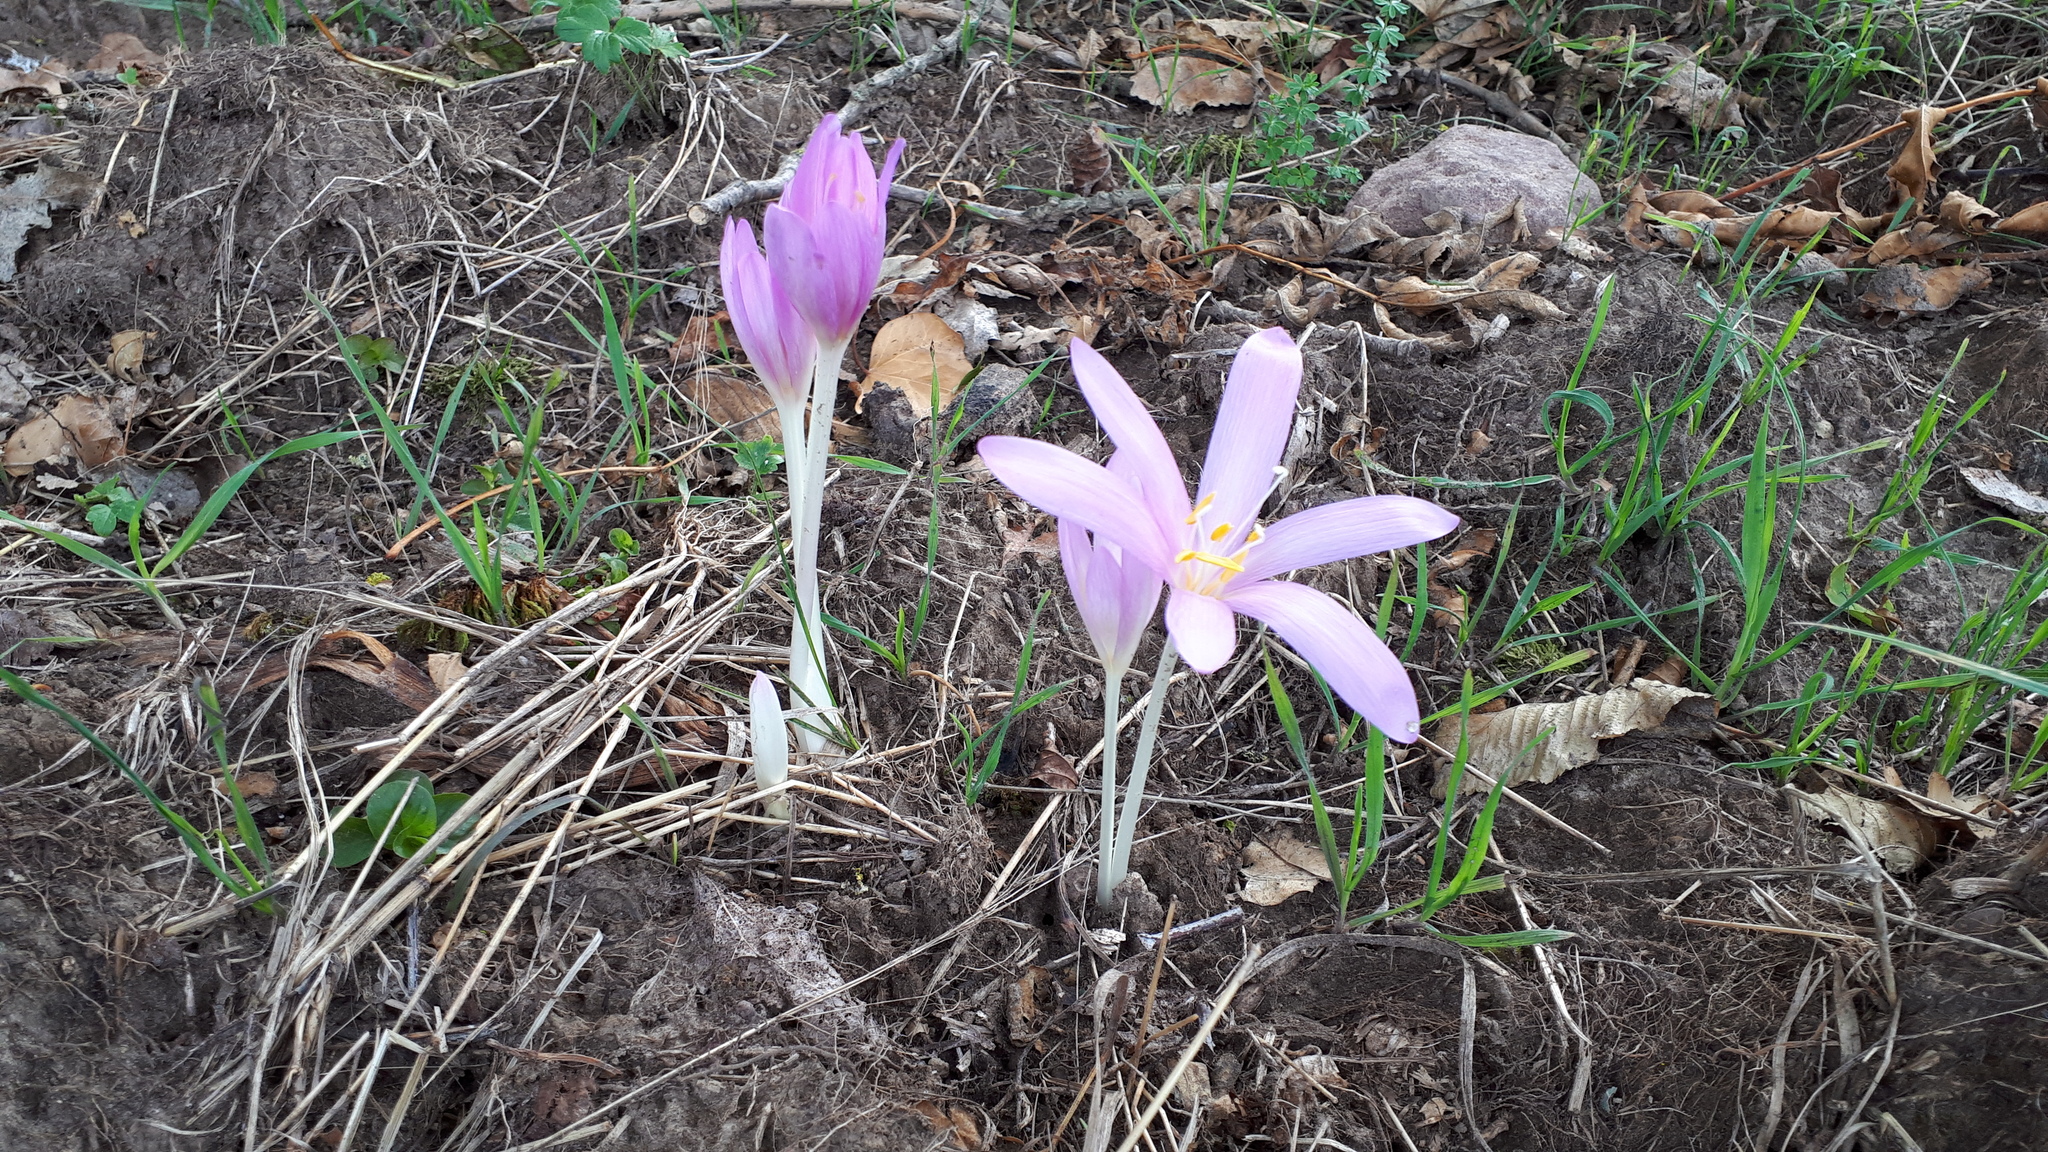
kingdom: Plantae
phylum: Tracheophyta
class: Liliopsida
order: Liliales
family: Colchicaceae
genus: Colchicum
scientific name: Colchicum autumnale
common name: Autumn crocus
